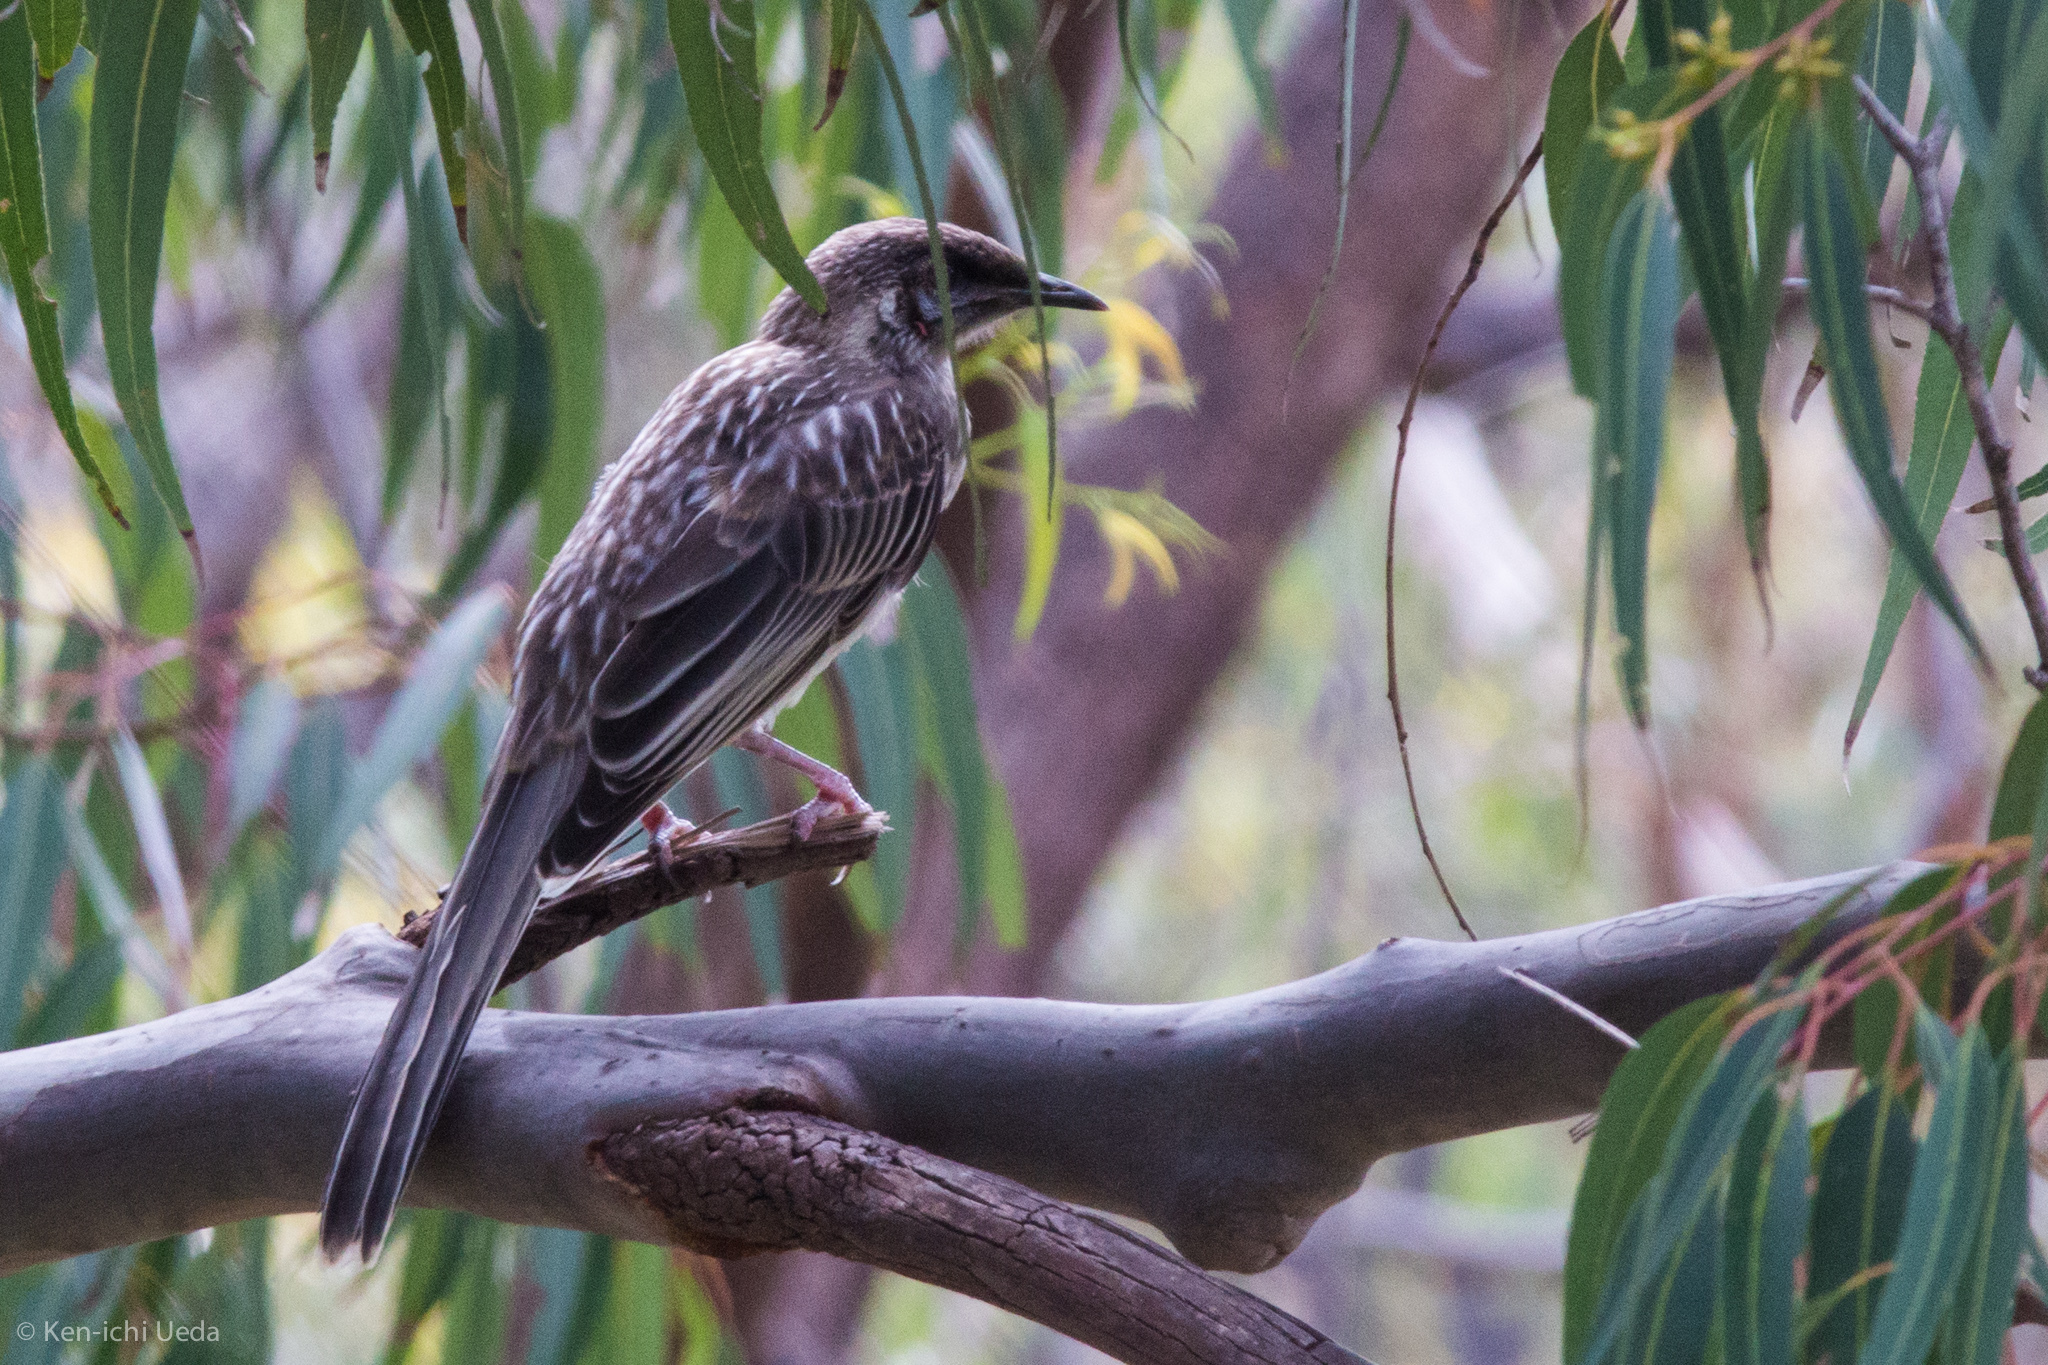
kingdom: Animalia
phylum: Chordata
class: Aves
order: Passeriformes
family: Meliphagidae
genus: Anthochaera
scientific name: Anthochaera carunculata
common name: Red wattlebird
